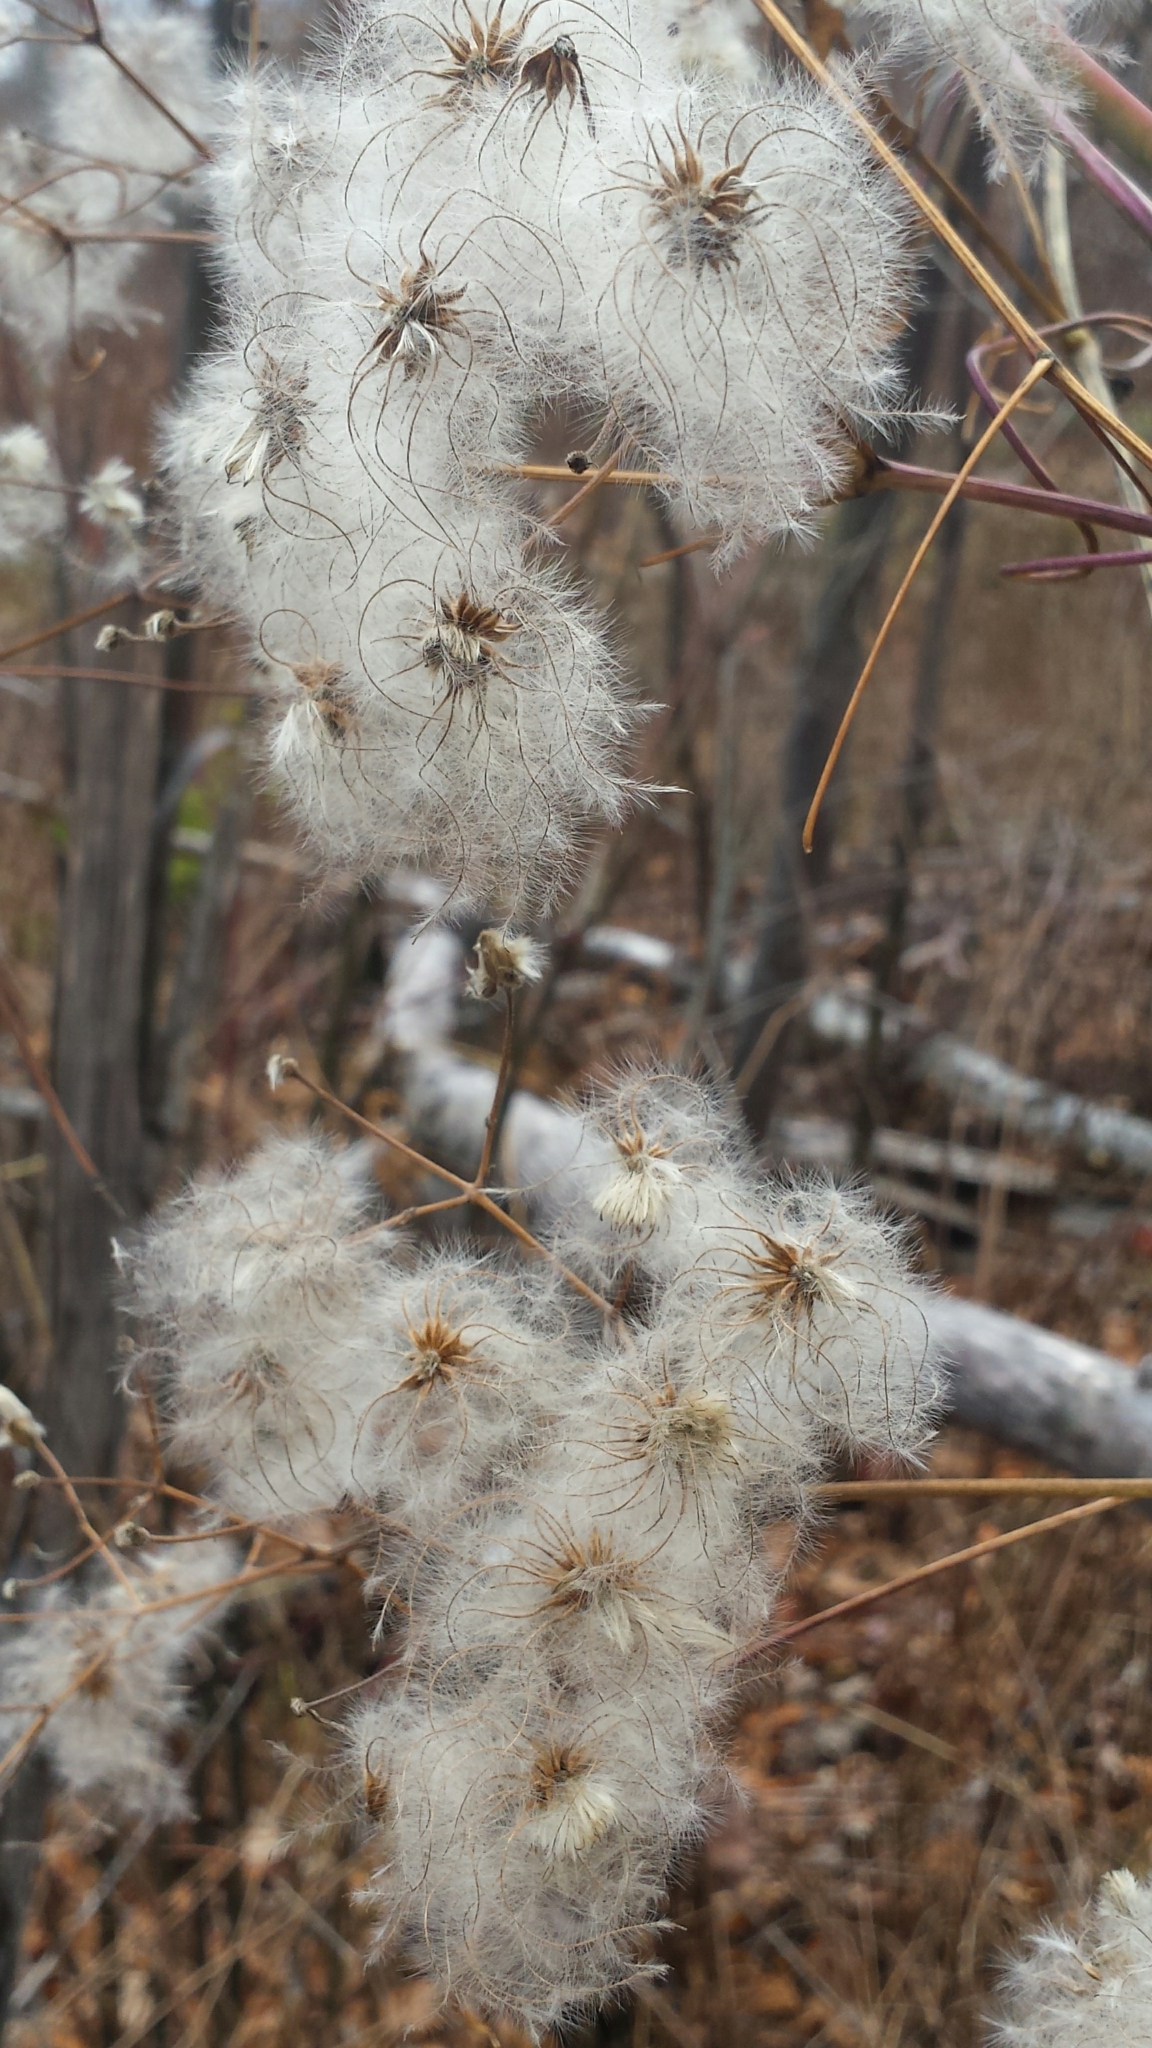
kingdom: Plantae
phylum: Tracheophyta
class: Magnoliopsida
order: Ranunculales
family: Ranunculaceae
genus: Clematis
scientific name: Clematis virginiana
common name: Virgin's-bower
